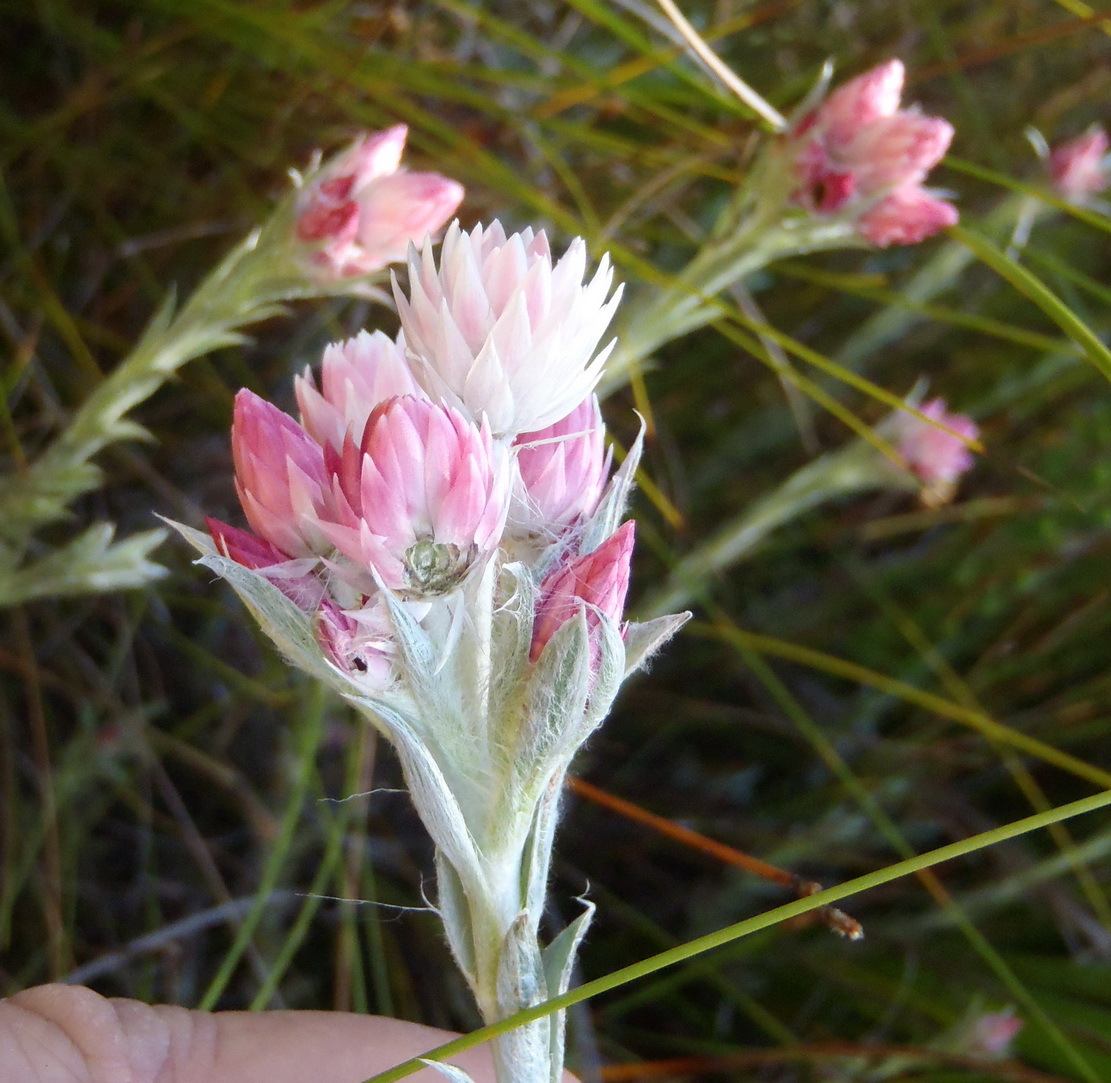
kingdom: Plantae
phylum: Tracheophyta
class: Magnoliopsida
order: Asterales
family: Asteraceae
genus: Achyranthemum
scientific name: Achyranthemum paniculatum
